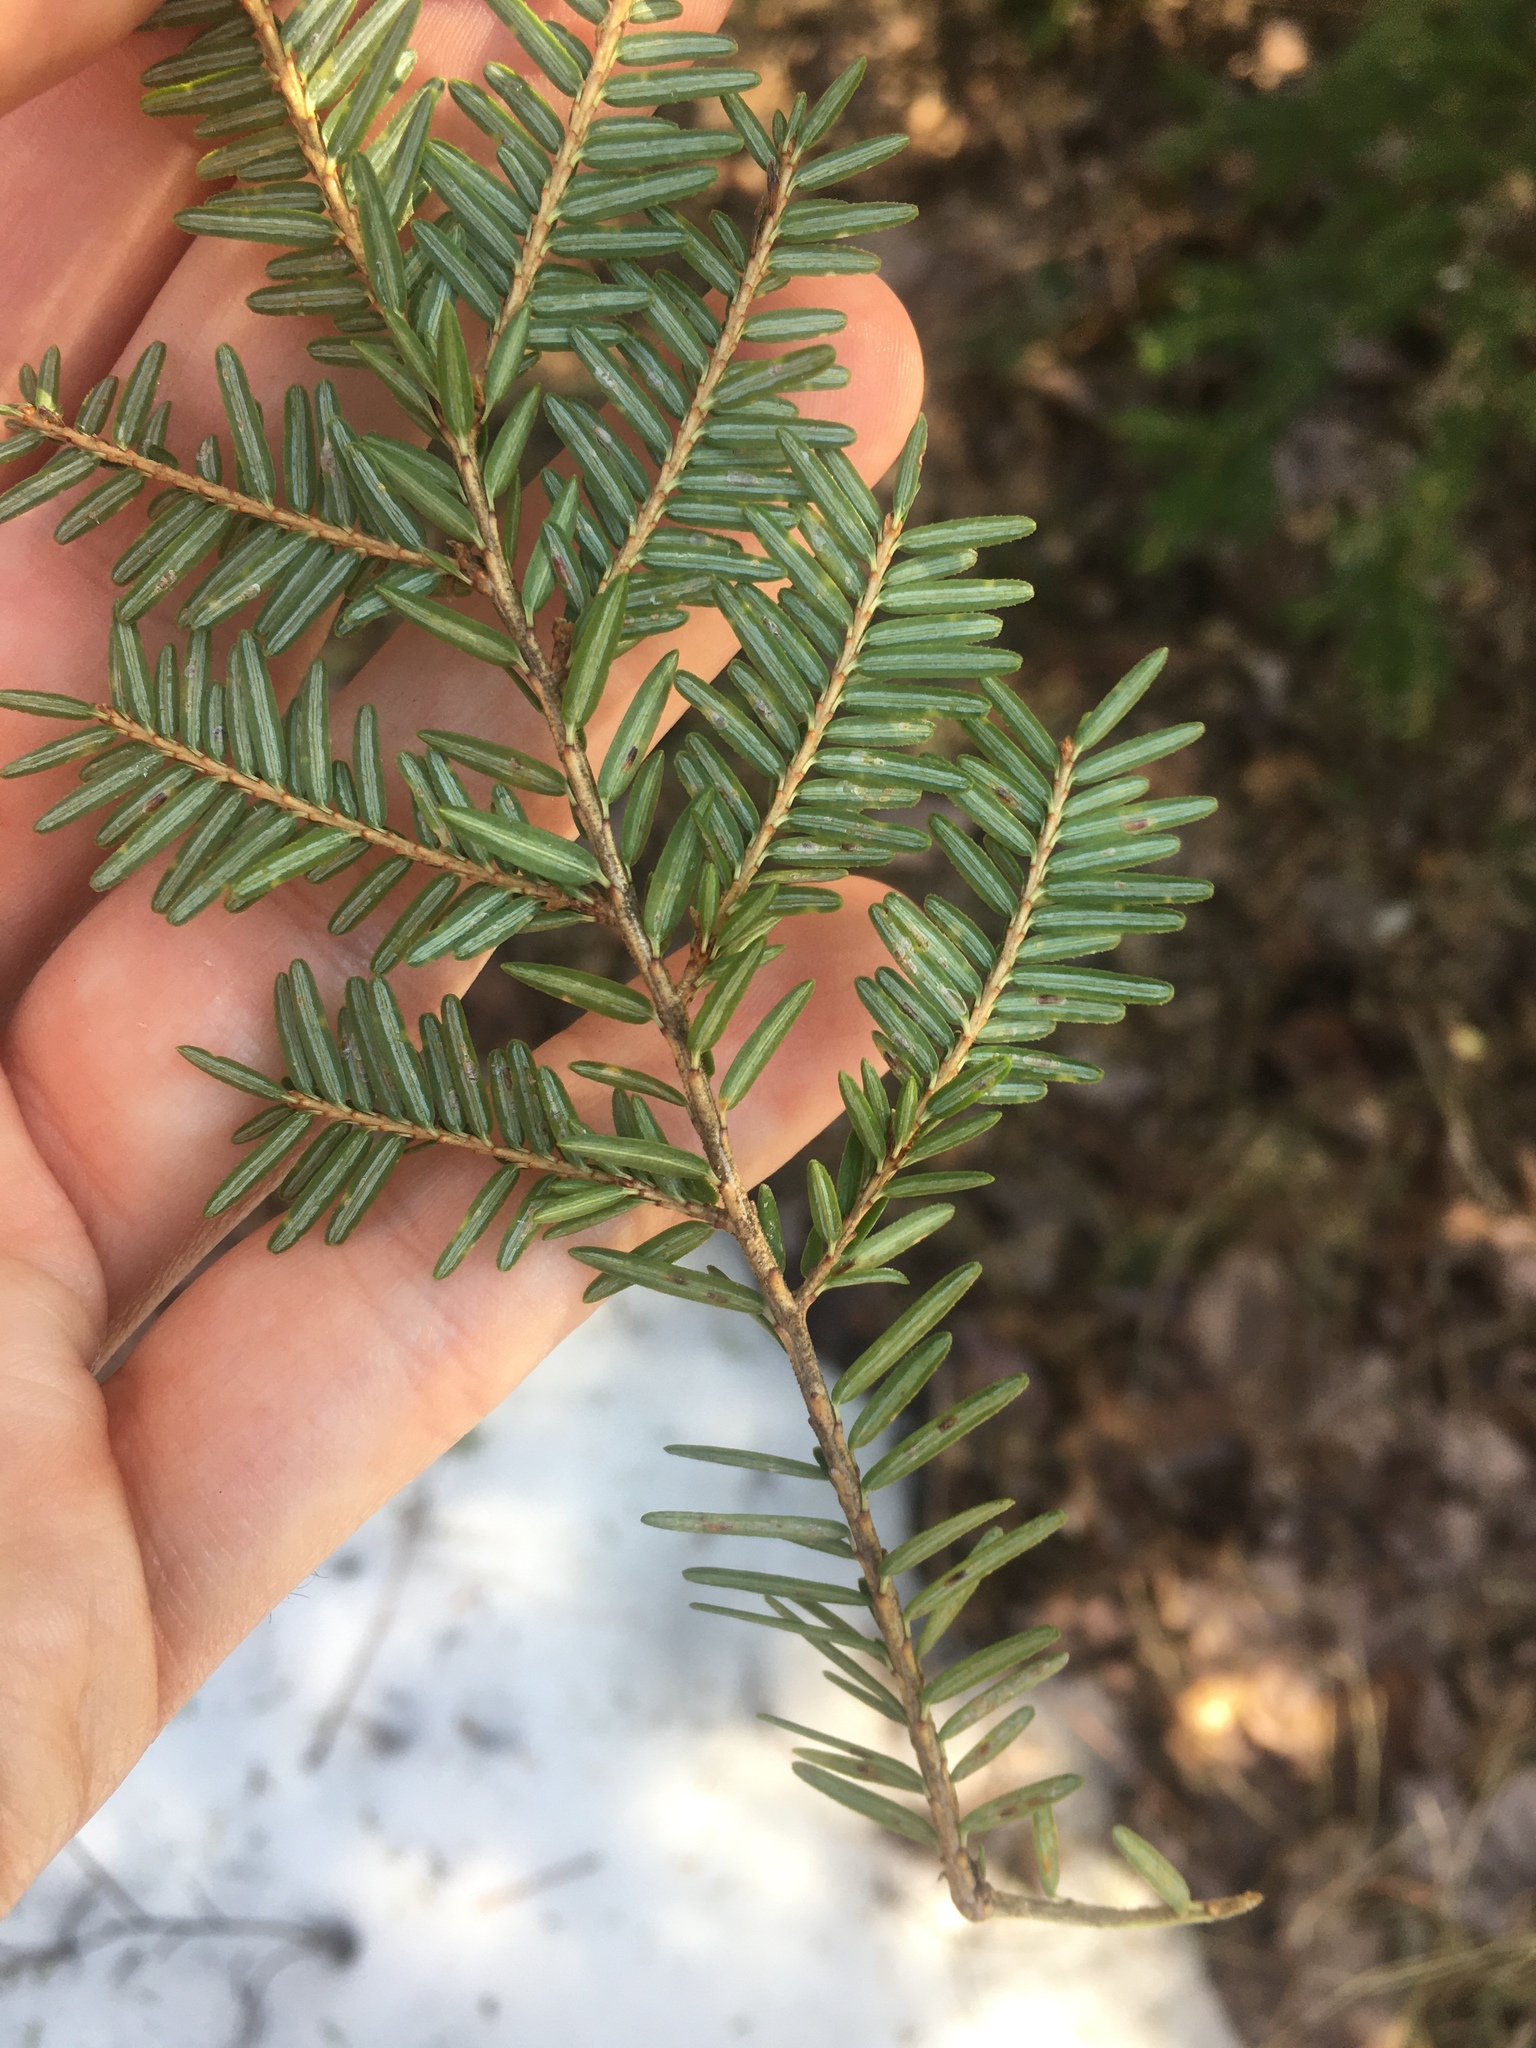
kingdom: Animalia
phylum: Arthropoda
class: Insecta
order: Hemiptera
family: Diaspididae
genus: Fiorinia
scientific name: Fiorinia externa
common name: Elongate hemlock scale
